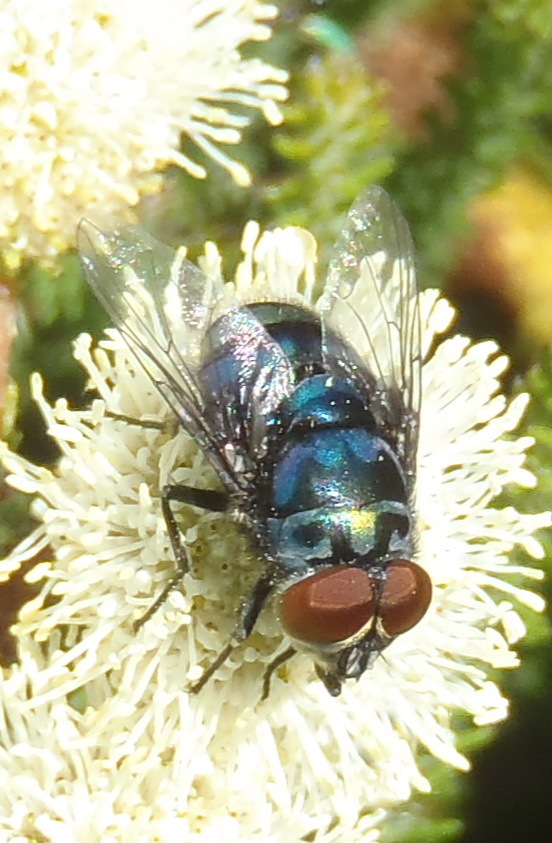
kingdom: Animalia
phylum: Arthropoda
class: Insecta
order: Diptera
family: Calliphoridae
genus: Chrysomya
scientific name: Chrysomya chloropyga
